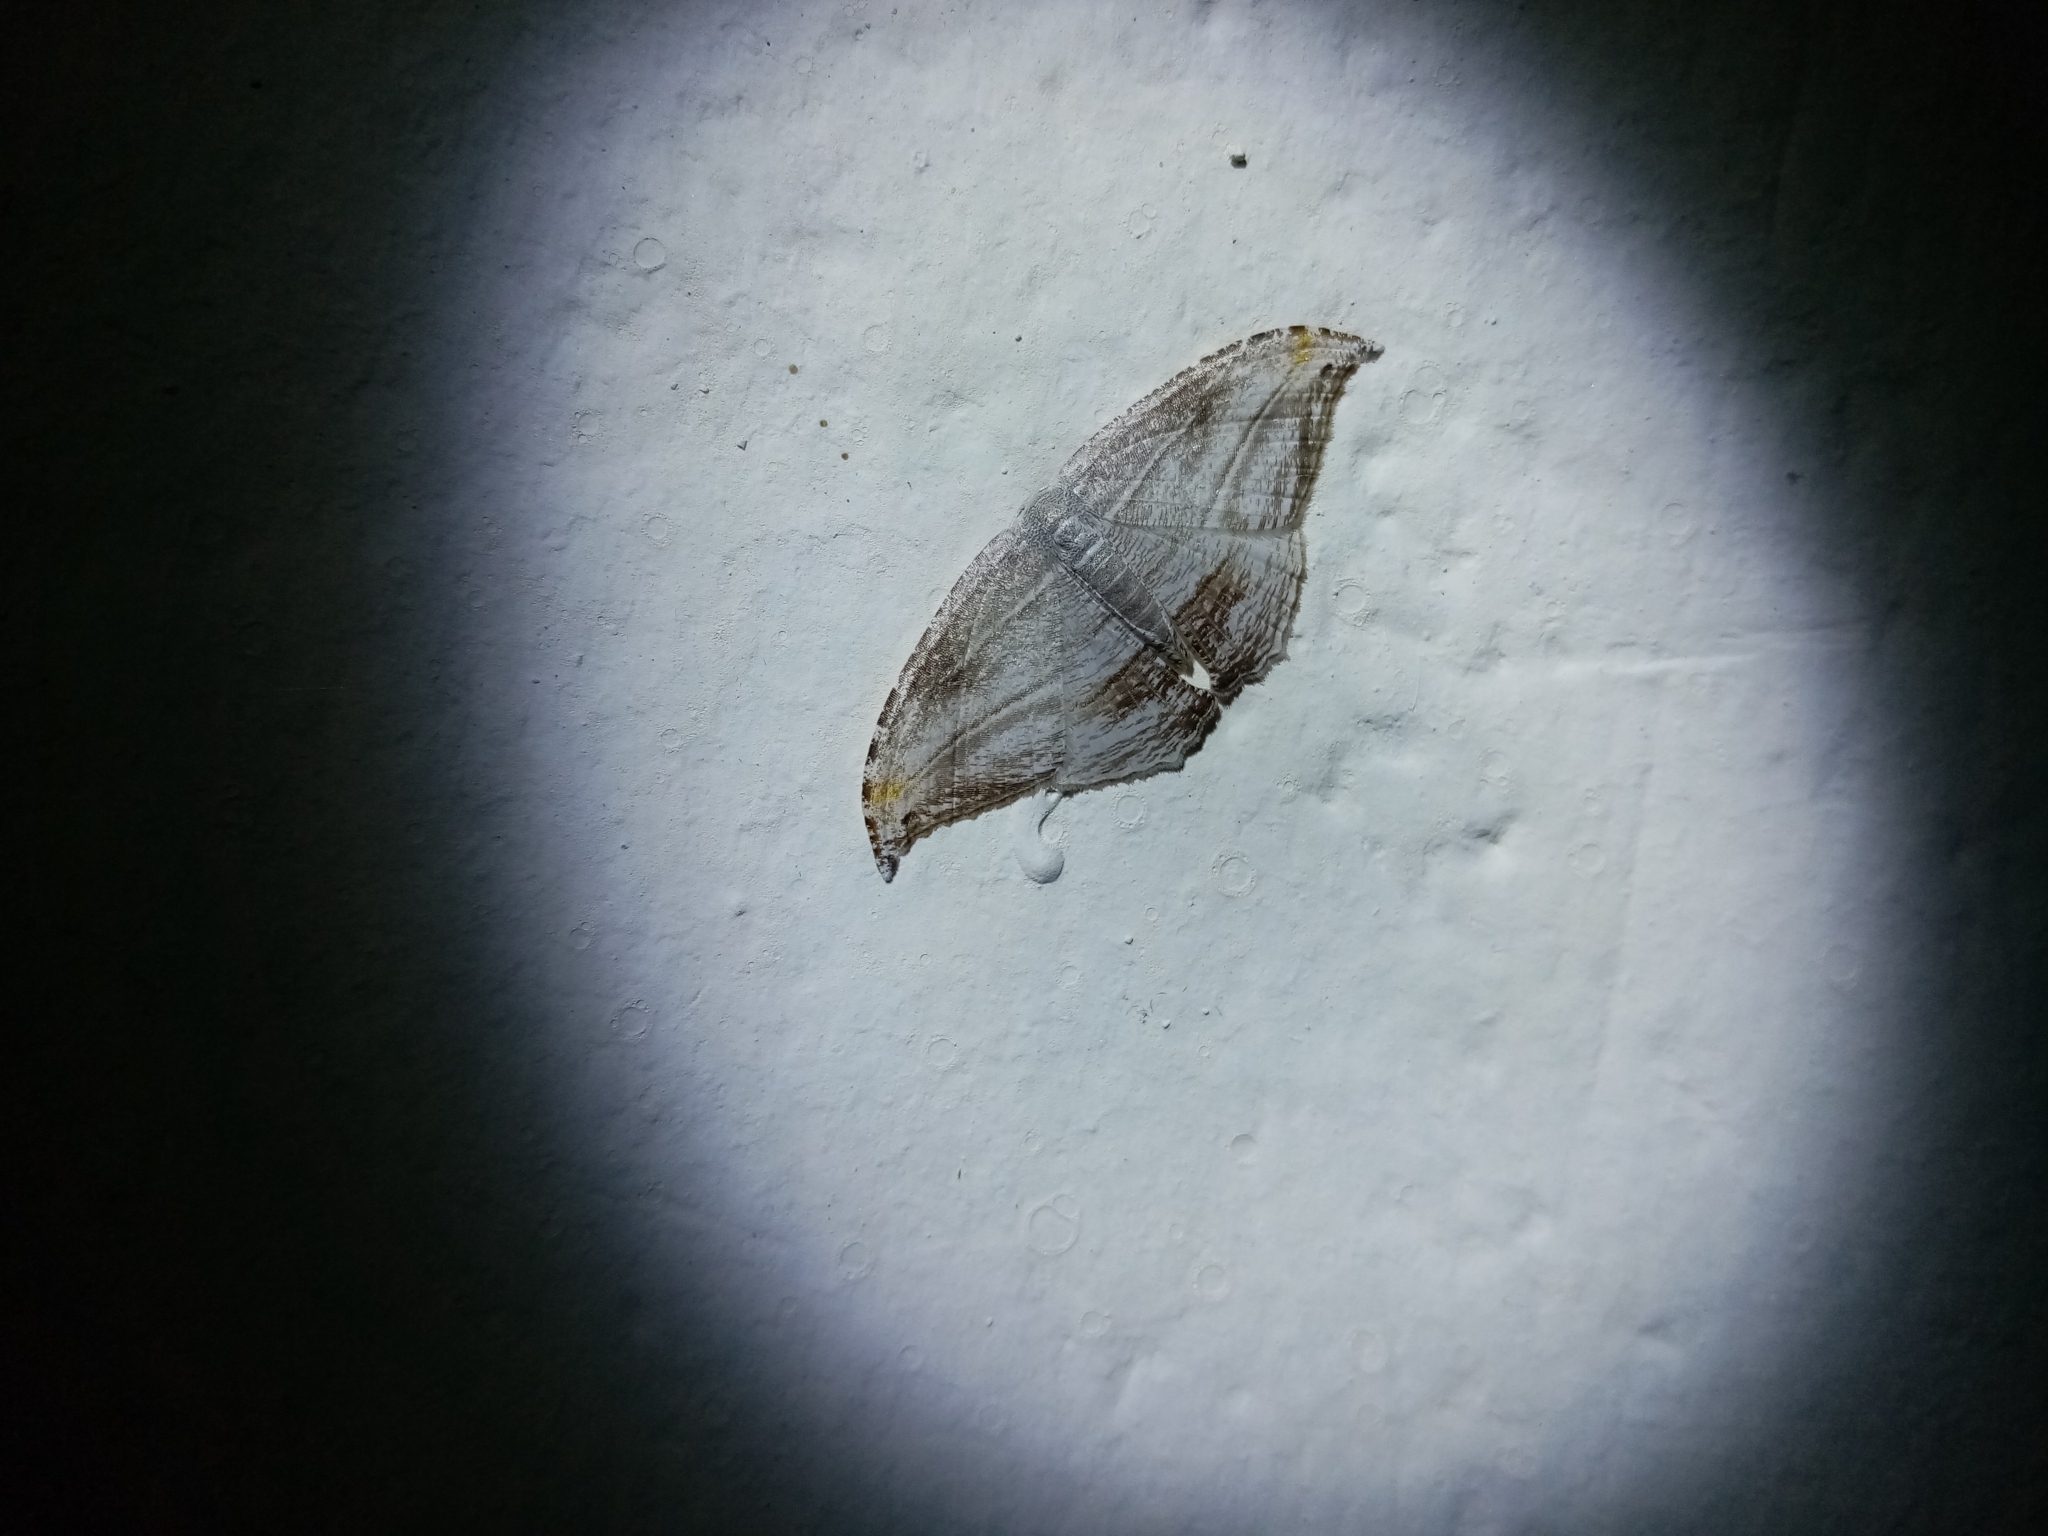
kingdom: Animalia
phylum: Arthropoda
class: Insecta
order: Lepidoptera
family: Uraniidae
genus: Morphomima
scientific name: Morphomima fulvitacta
